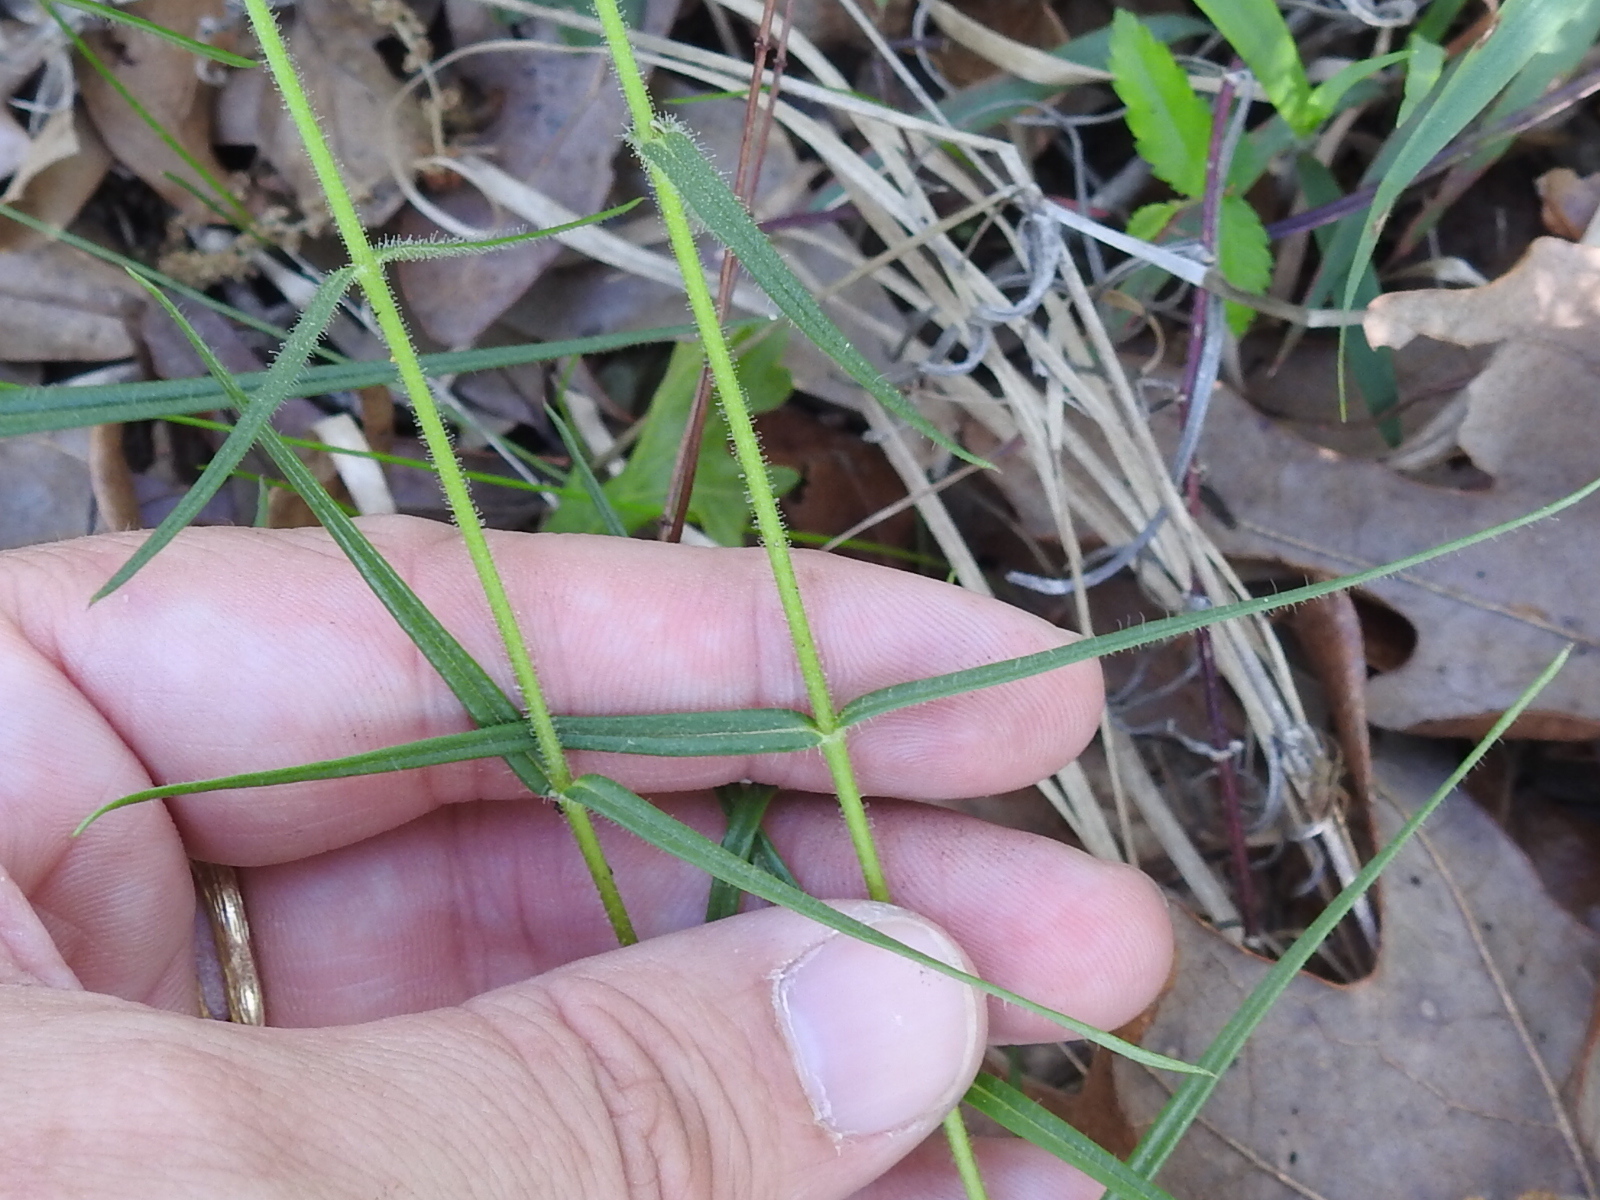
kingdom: Plantae
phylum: Tracheophyta
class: Magnoliopsida
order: Ericales
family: Polemoniaceae
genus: Phlox
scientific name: Phlox pilosa
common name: Prairie phlox
